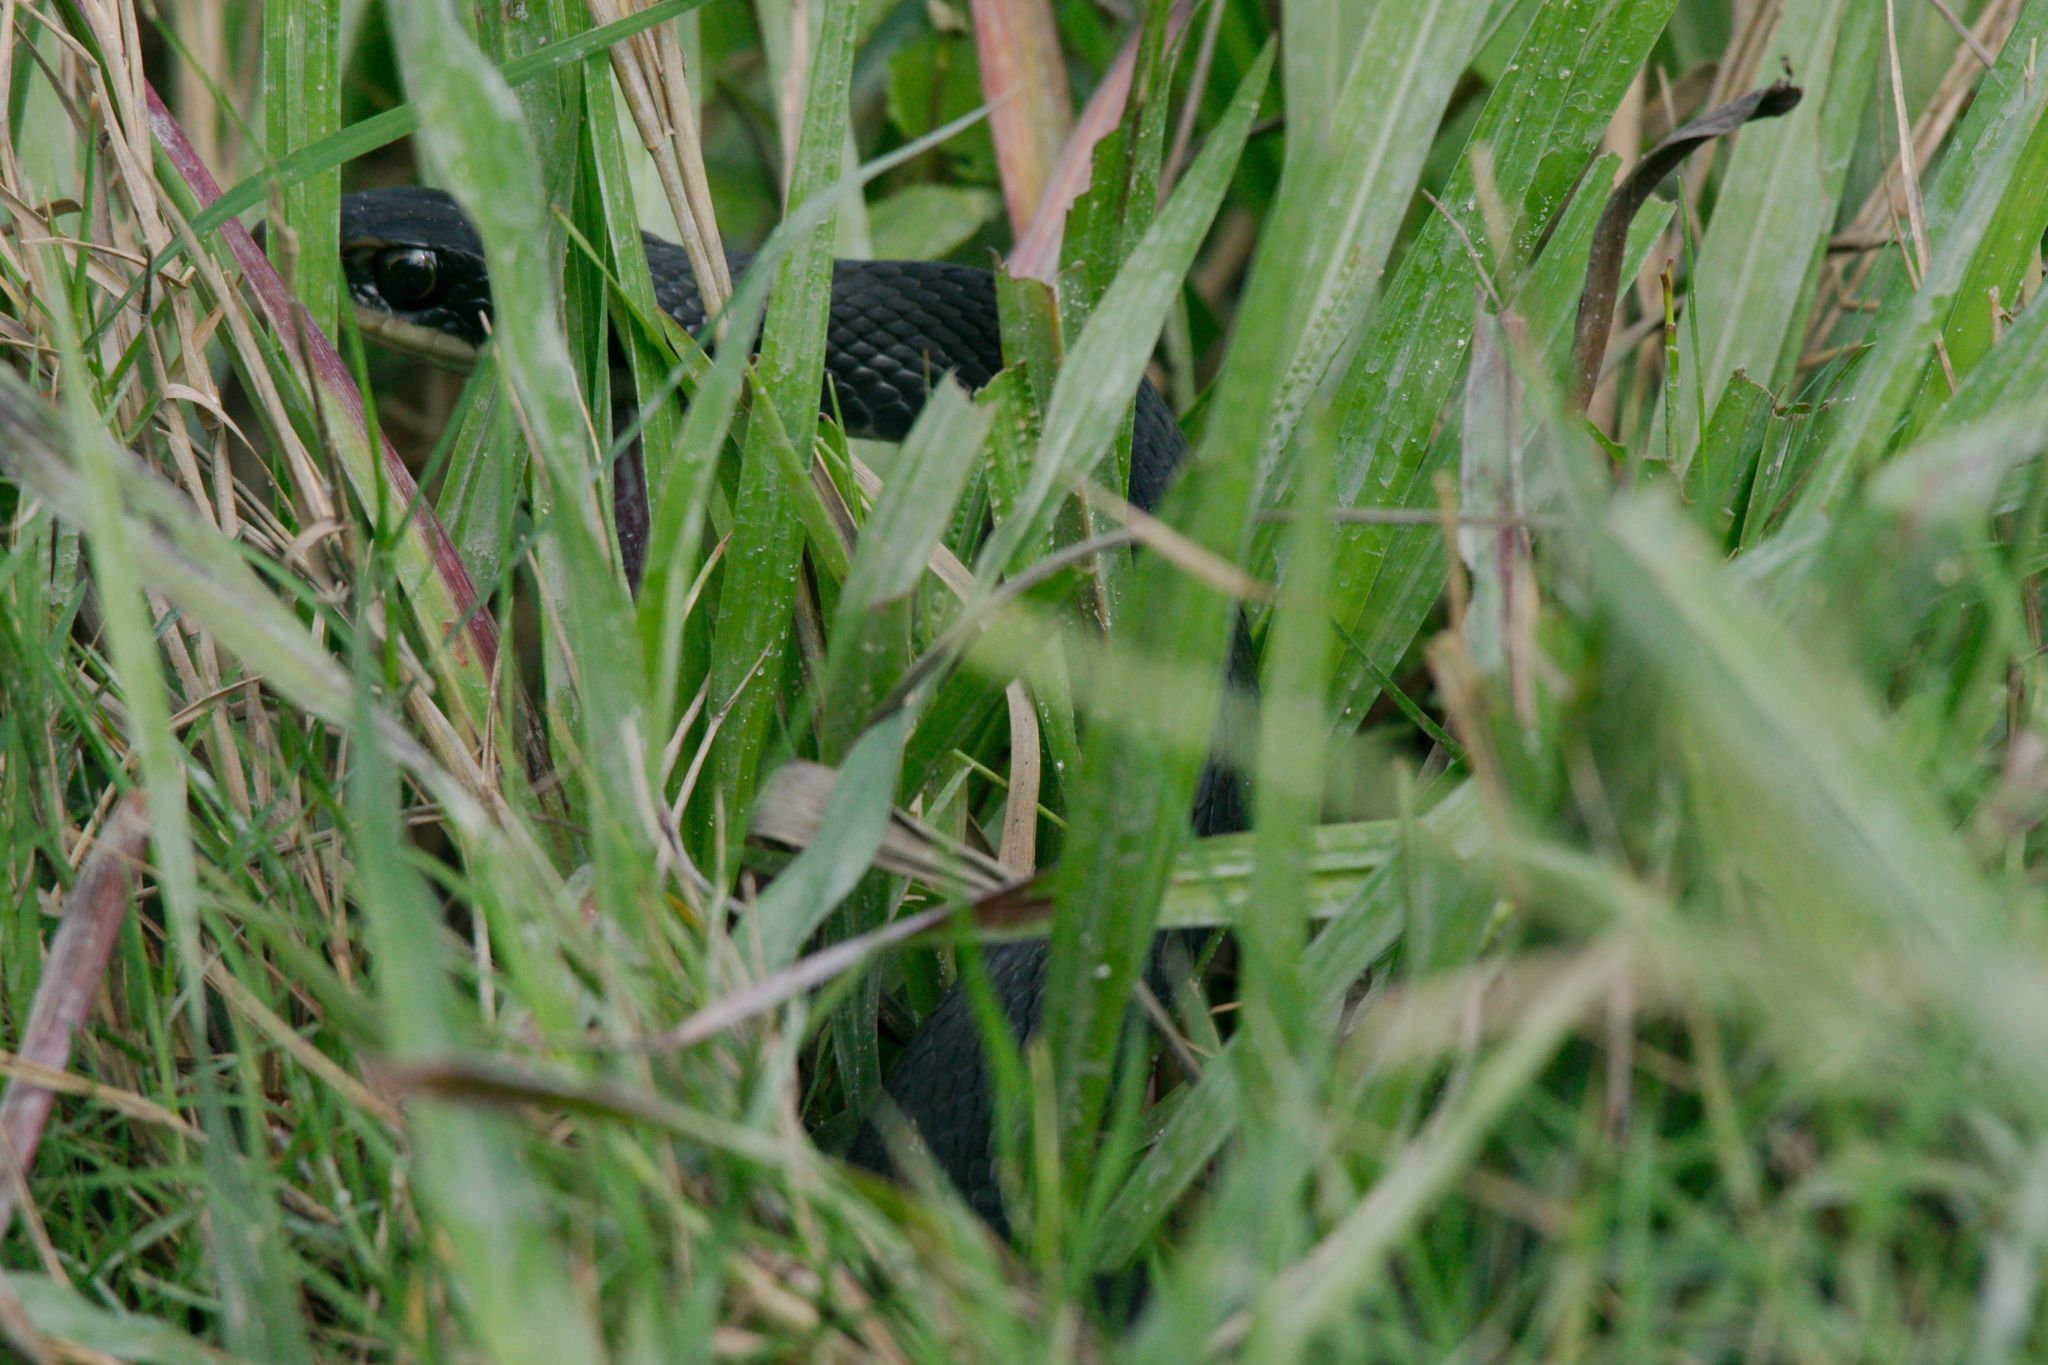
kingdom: Animalia
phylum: Chordata
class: Squamata
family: Colubridae
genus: Coluber
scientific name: Coluber constrictor
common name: Eastern racer
